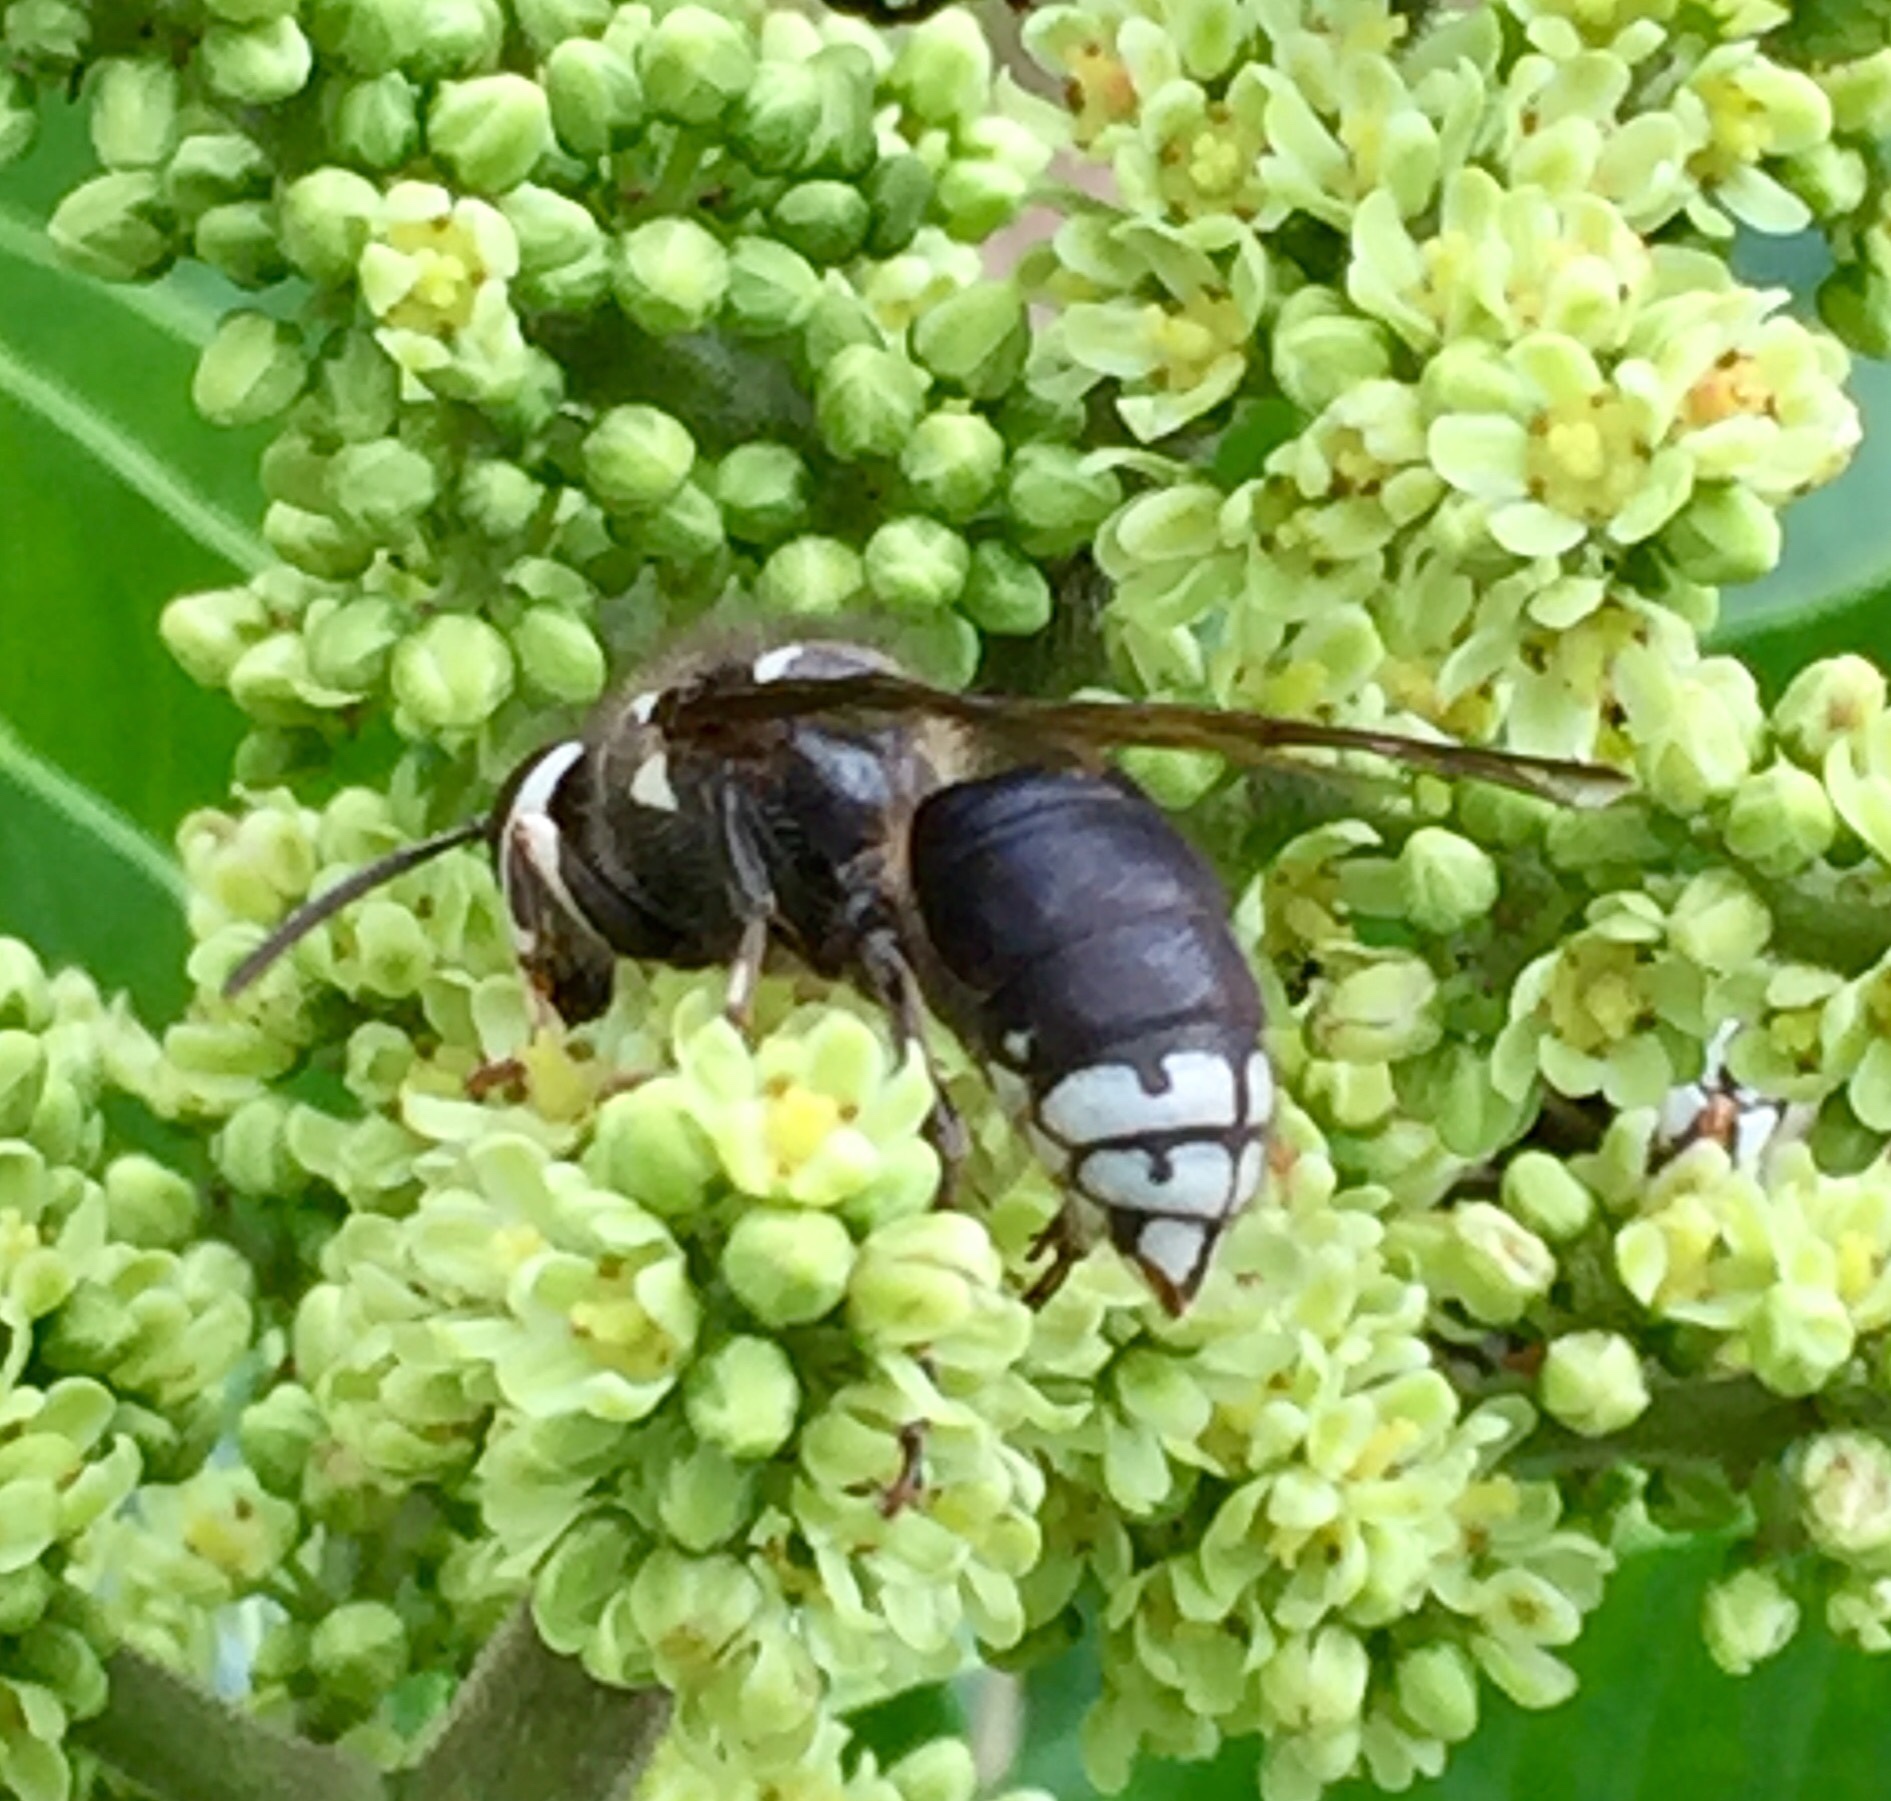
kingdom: Animalia
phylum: Arthropoda
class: Insecta
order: Hymenoptera
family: Vespidae
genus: Dolichovespula
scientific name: Dolichovespula maculata
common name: Bald-faced hornet
